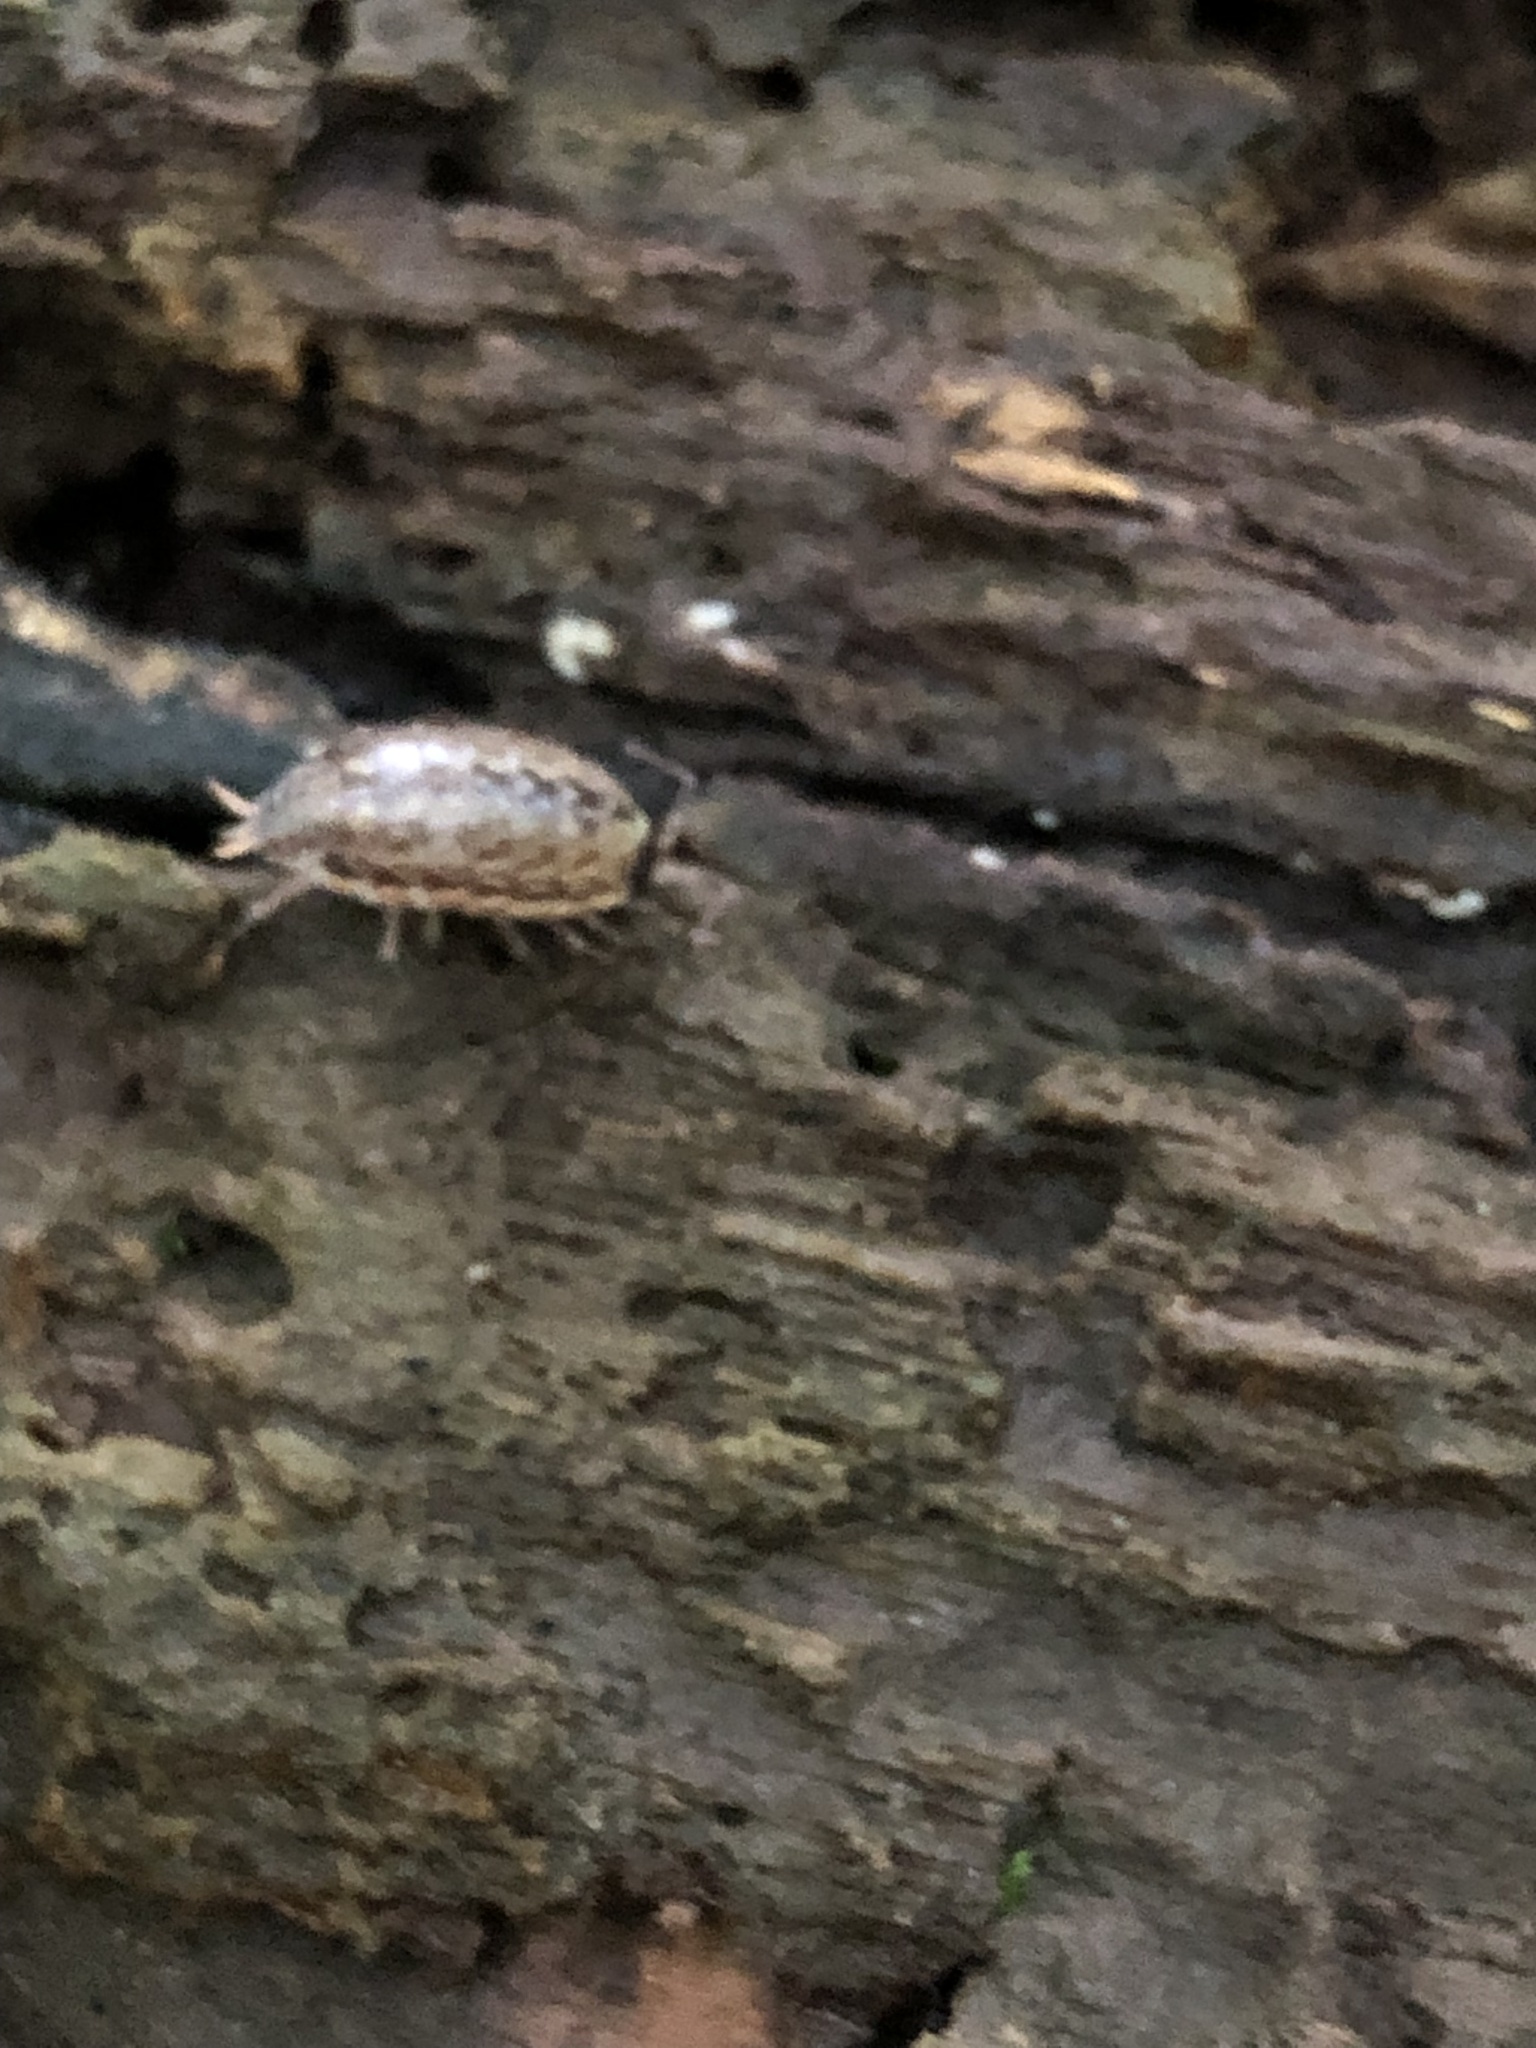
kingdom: Animalia
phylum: Arthropoda
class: Malacostraca
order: Isopoda
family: Philosciidae
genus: Philoscia
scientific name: Philoscia muscorum
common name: Common striped woodlouse
